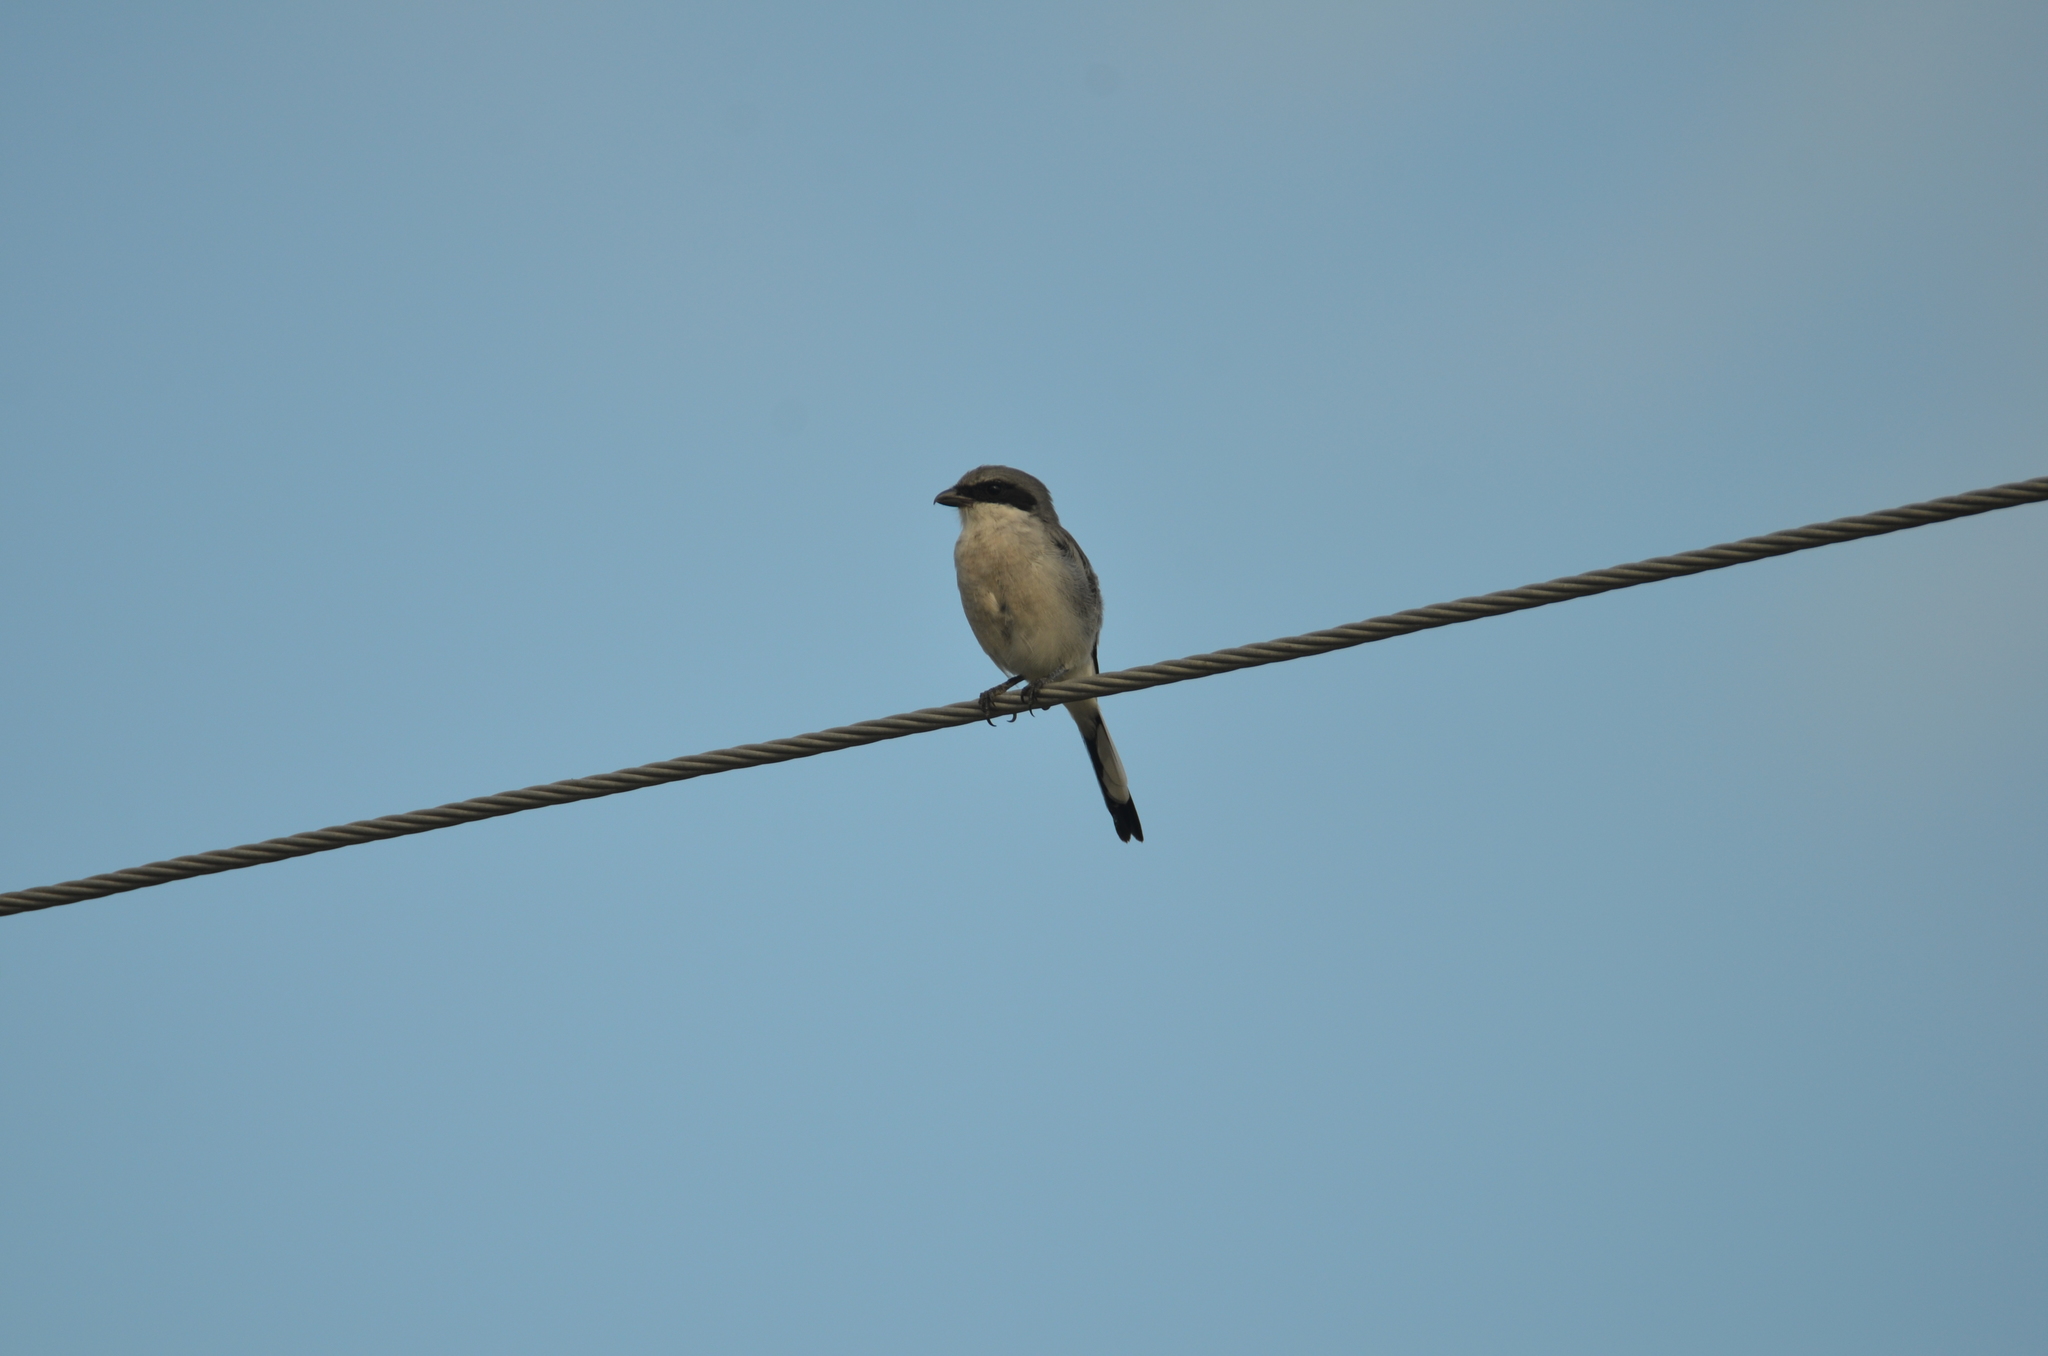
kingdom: Animalia
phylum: Chordata
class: Aves
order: Passeriformes
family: Laniidae
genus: Lanius
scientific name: Lanius ludovicianus
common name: Loggerhead shrike
